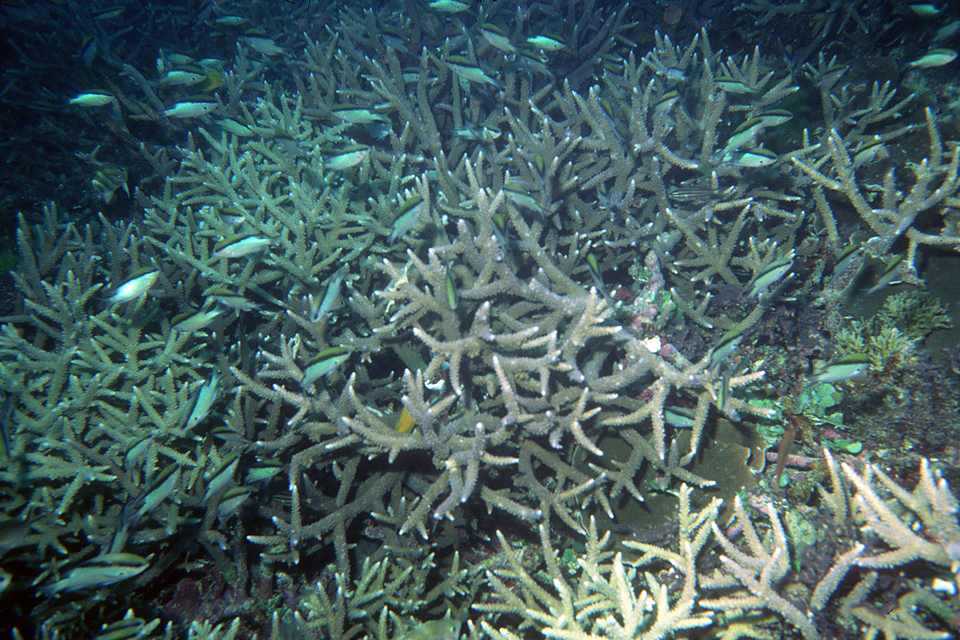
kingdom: Animalia
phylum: Chordata
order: Perciformes
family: Pomacentridae
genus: Chromis
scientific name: Chromis nitida
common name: Barrier reef chromis
